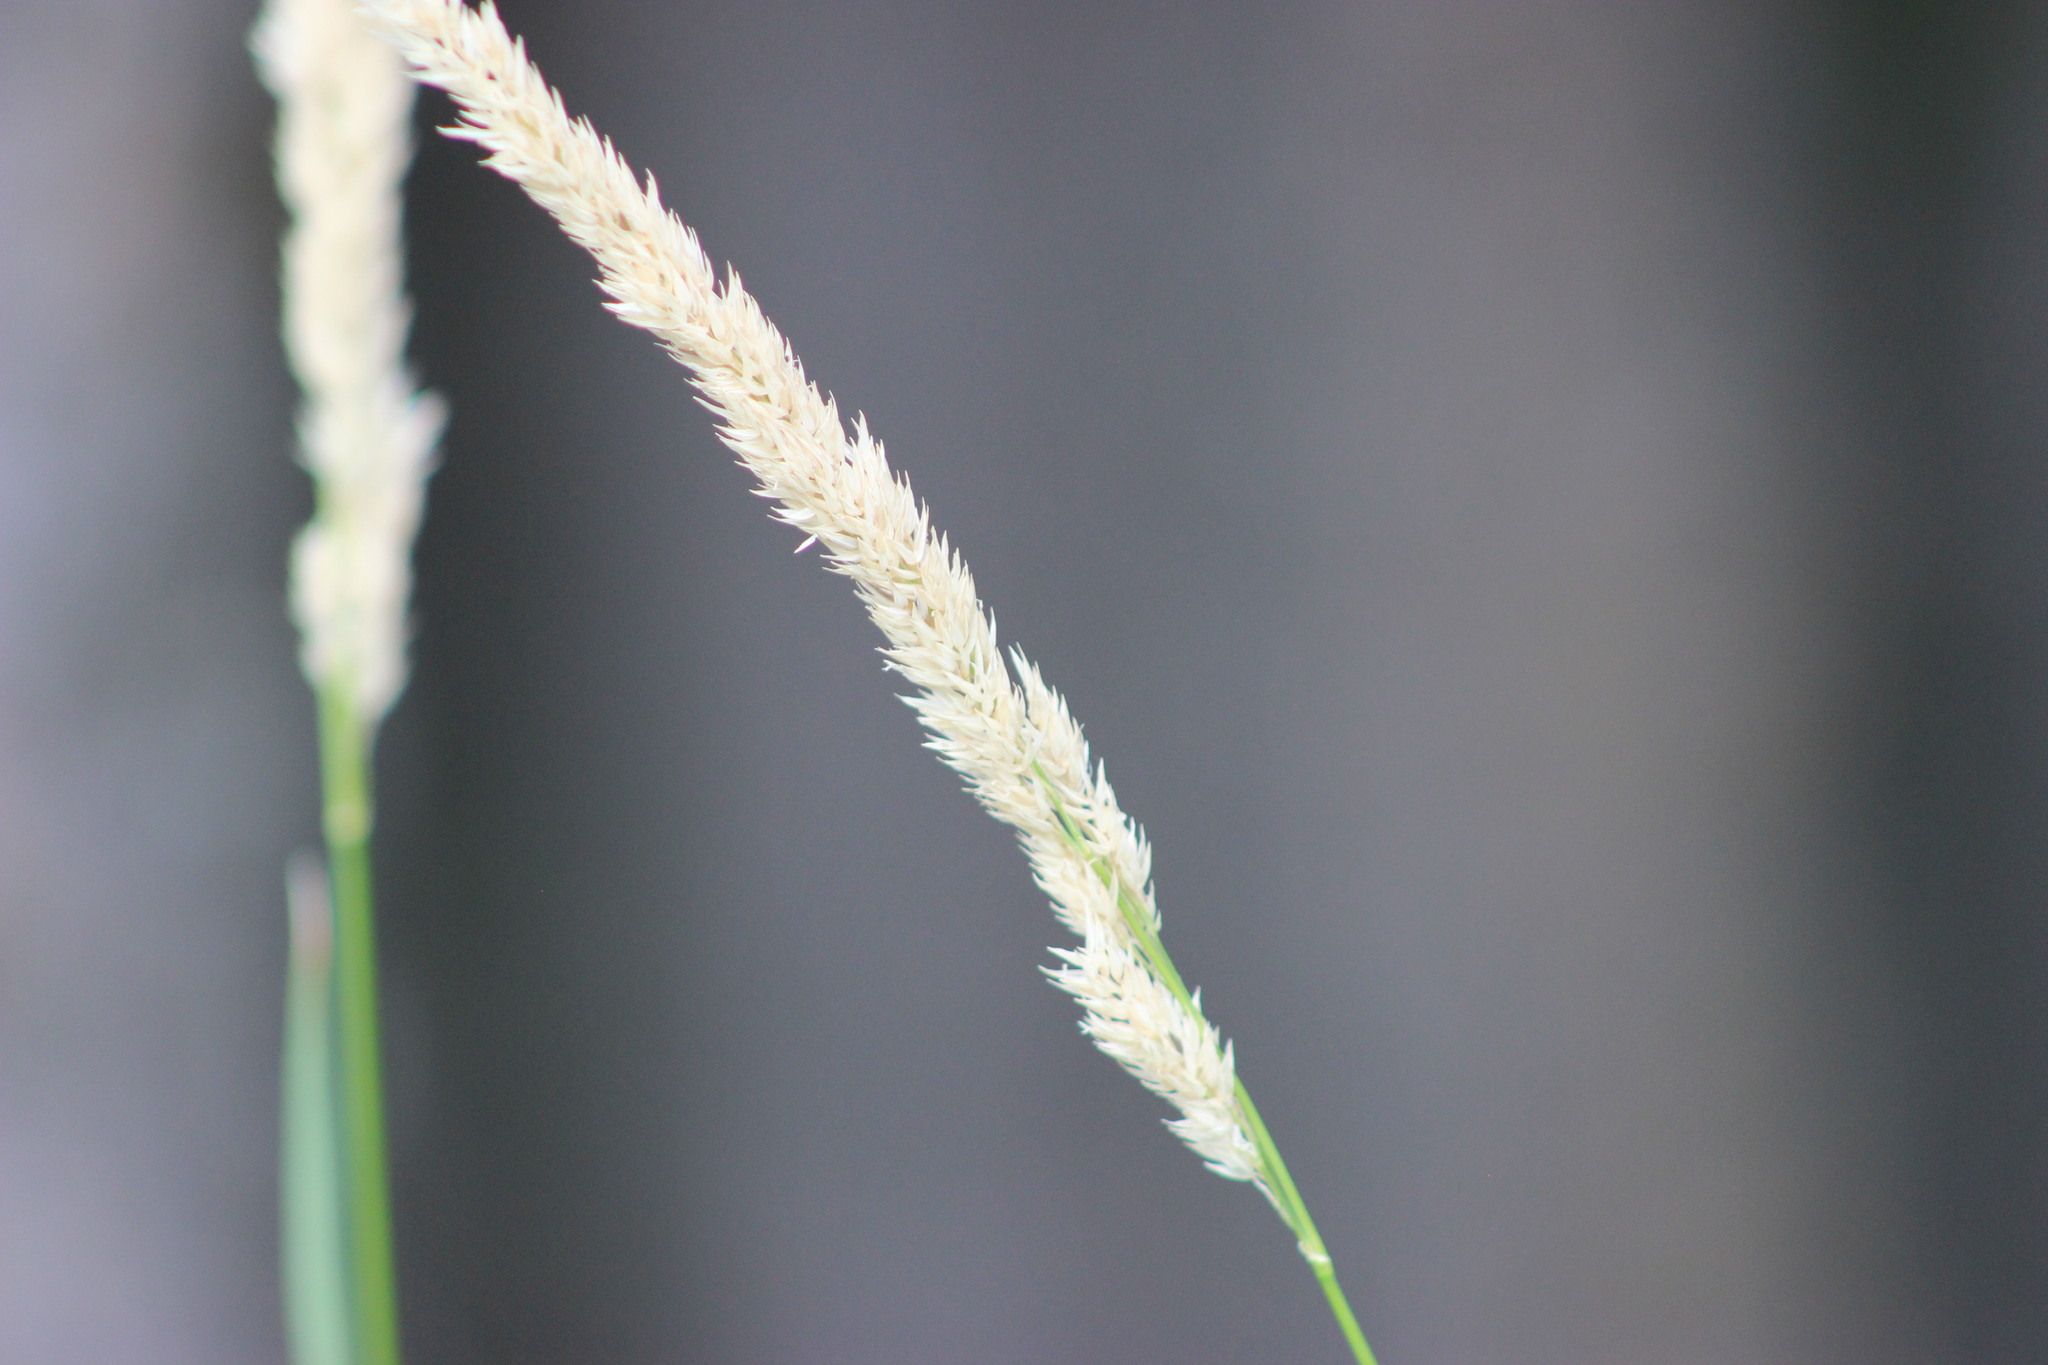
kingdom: Plantae
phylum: Tracheophyta
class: Liliopsida
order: Poales
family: Poaceae
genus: Phalaris
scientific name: Phalaris arundinacea
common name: Reed canary-grass
